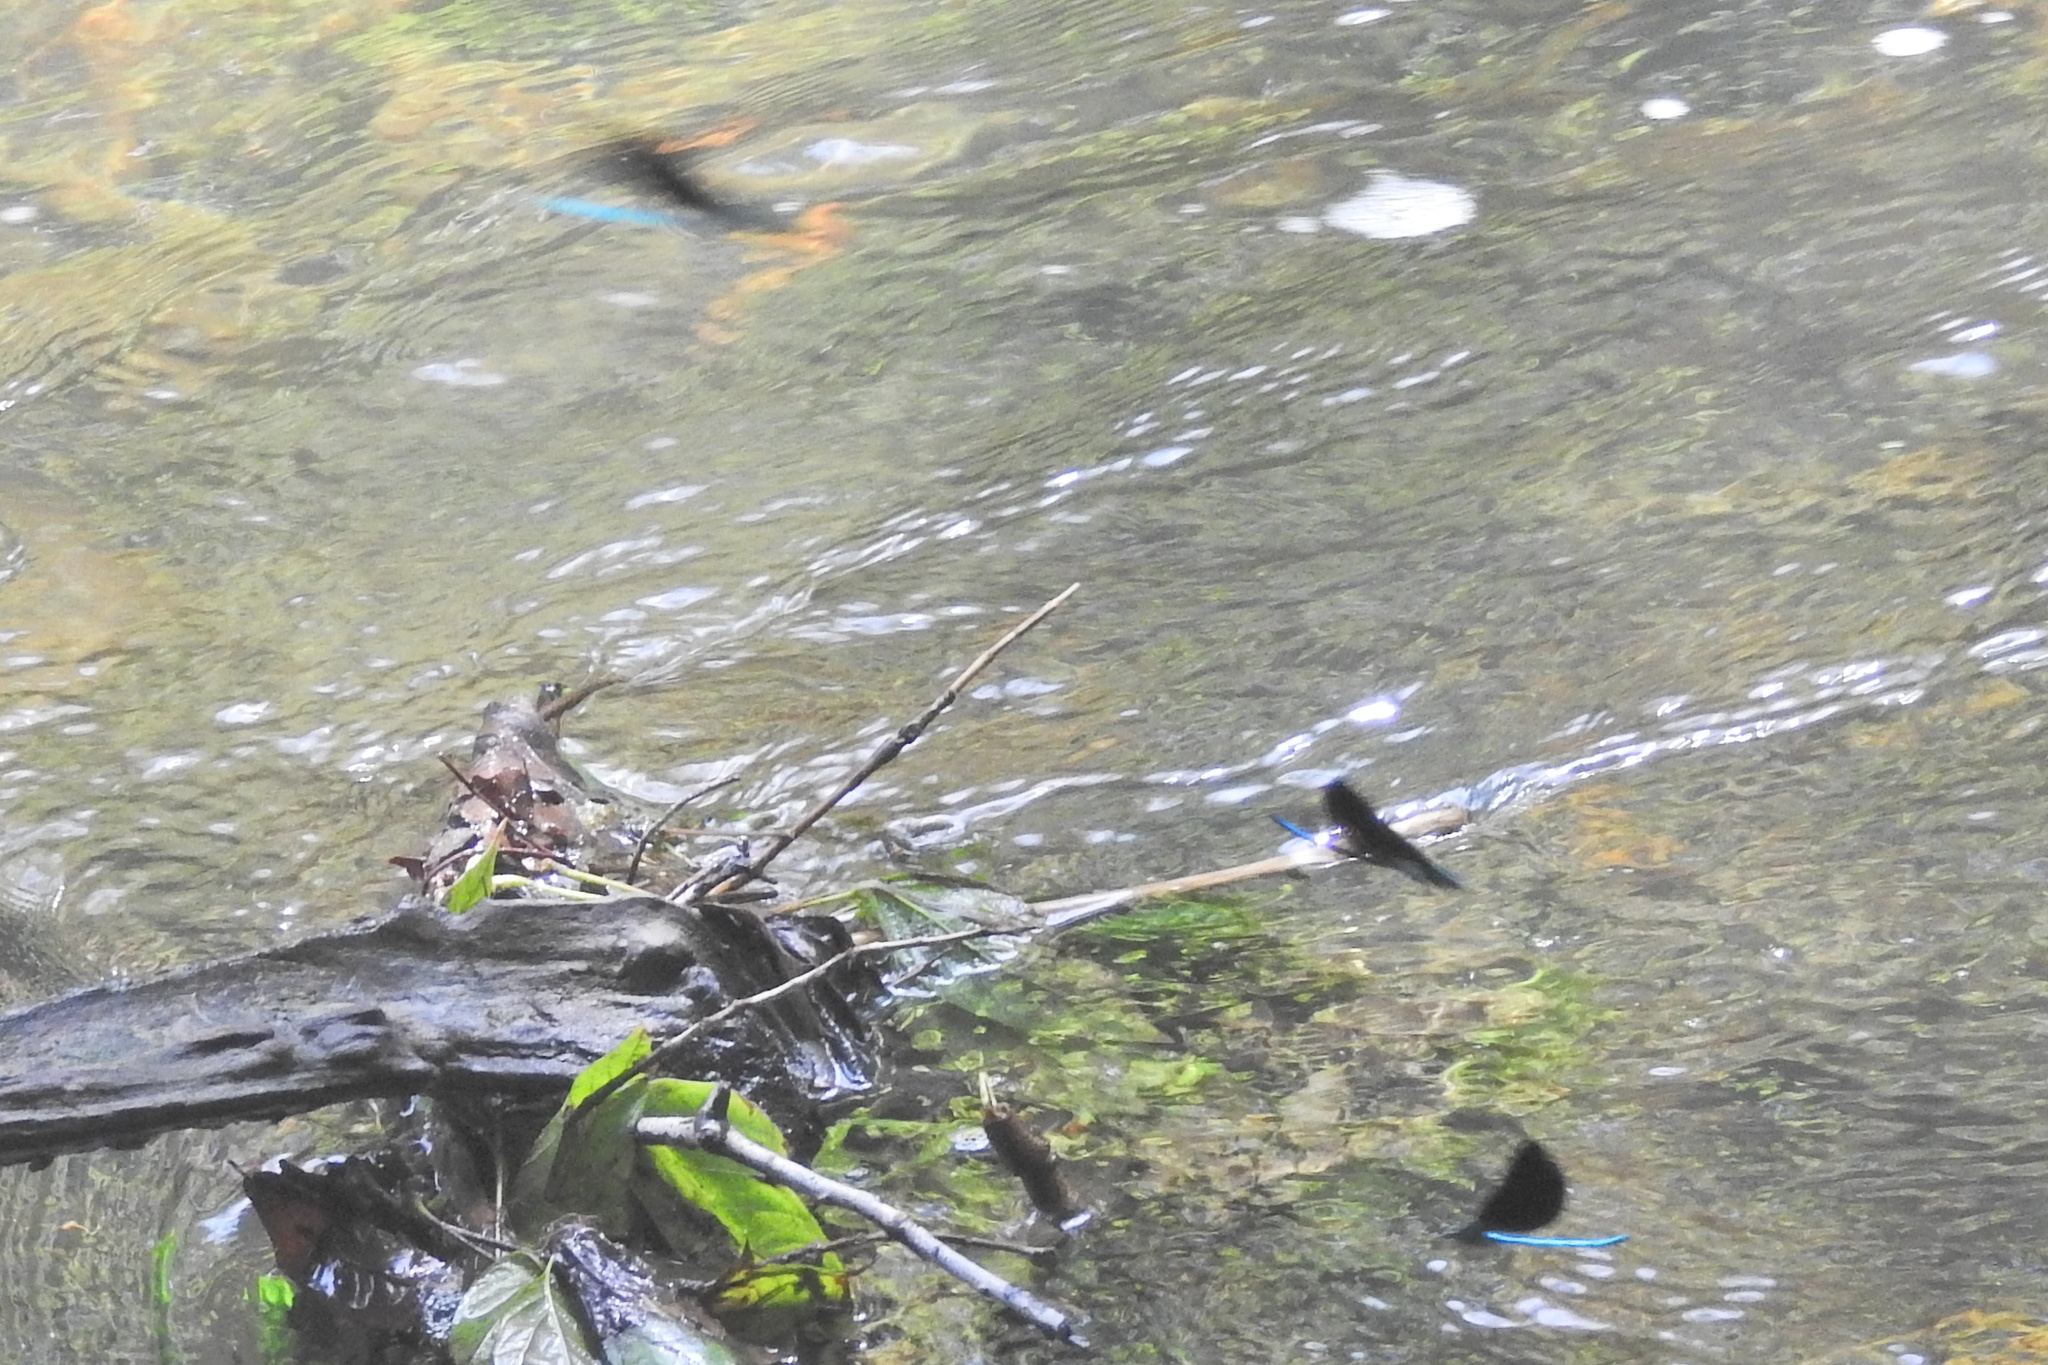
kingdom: Animalia
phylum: Arthropoda
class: Insecta
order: Odonata
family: Calopterygidae
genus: Calopteryx
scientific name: Calopteryx maculata
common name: Ebony jewelwing
